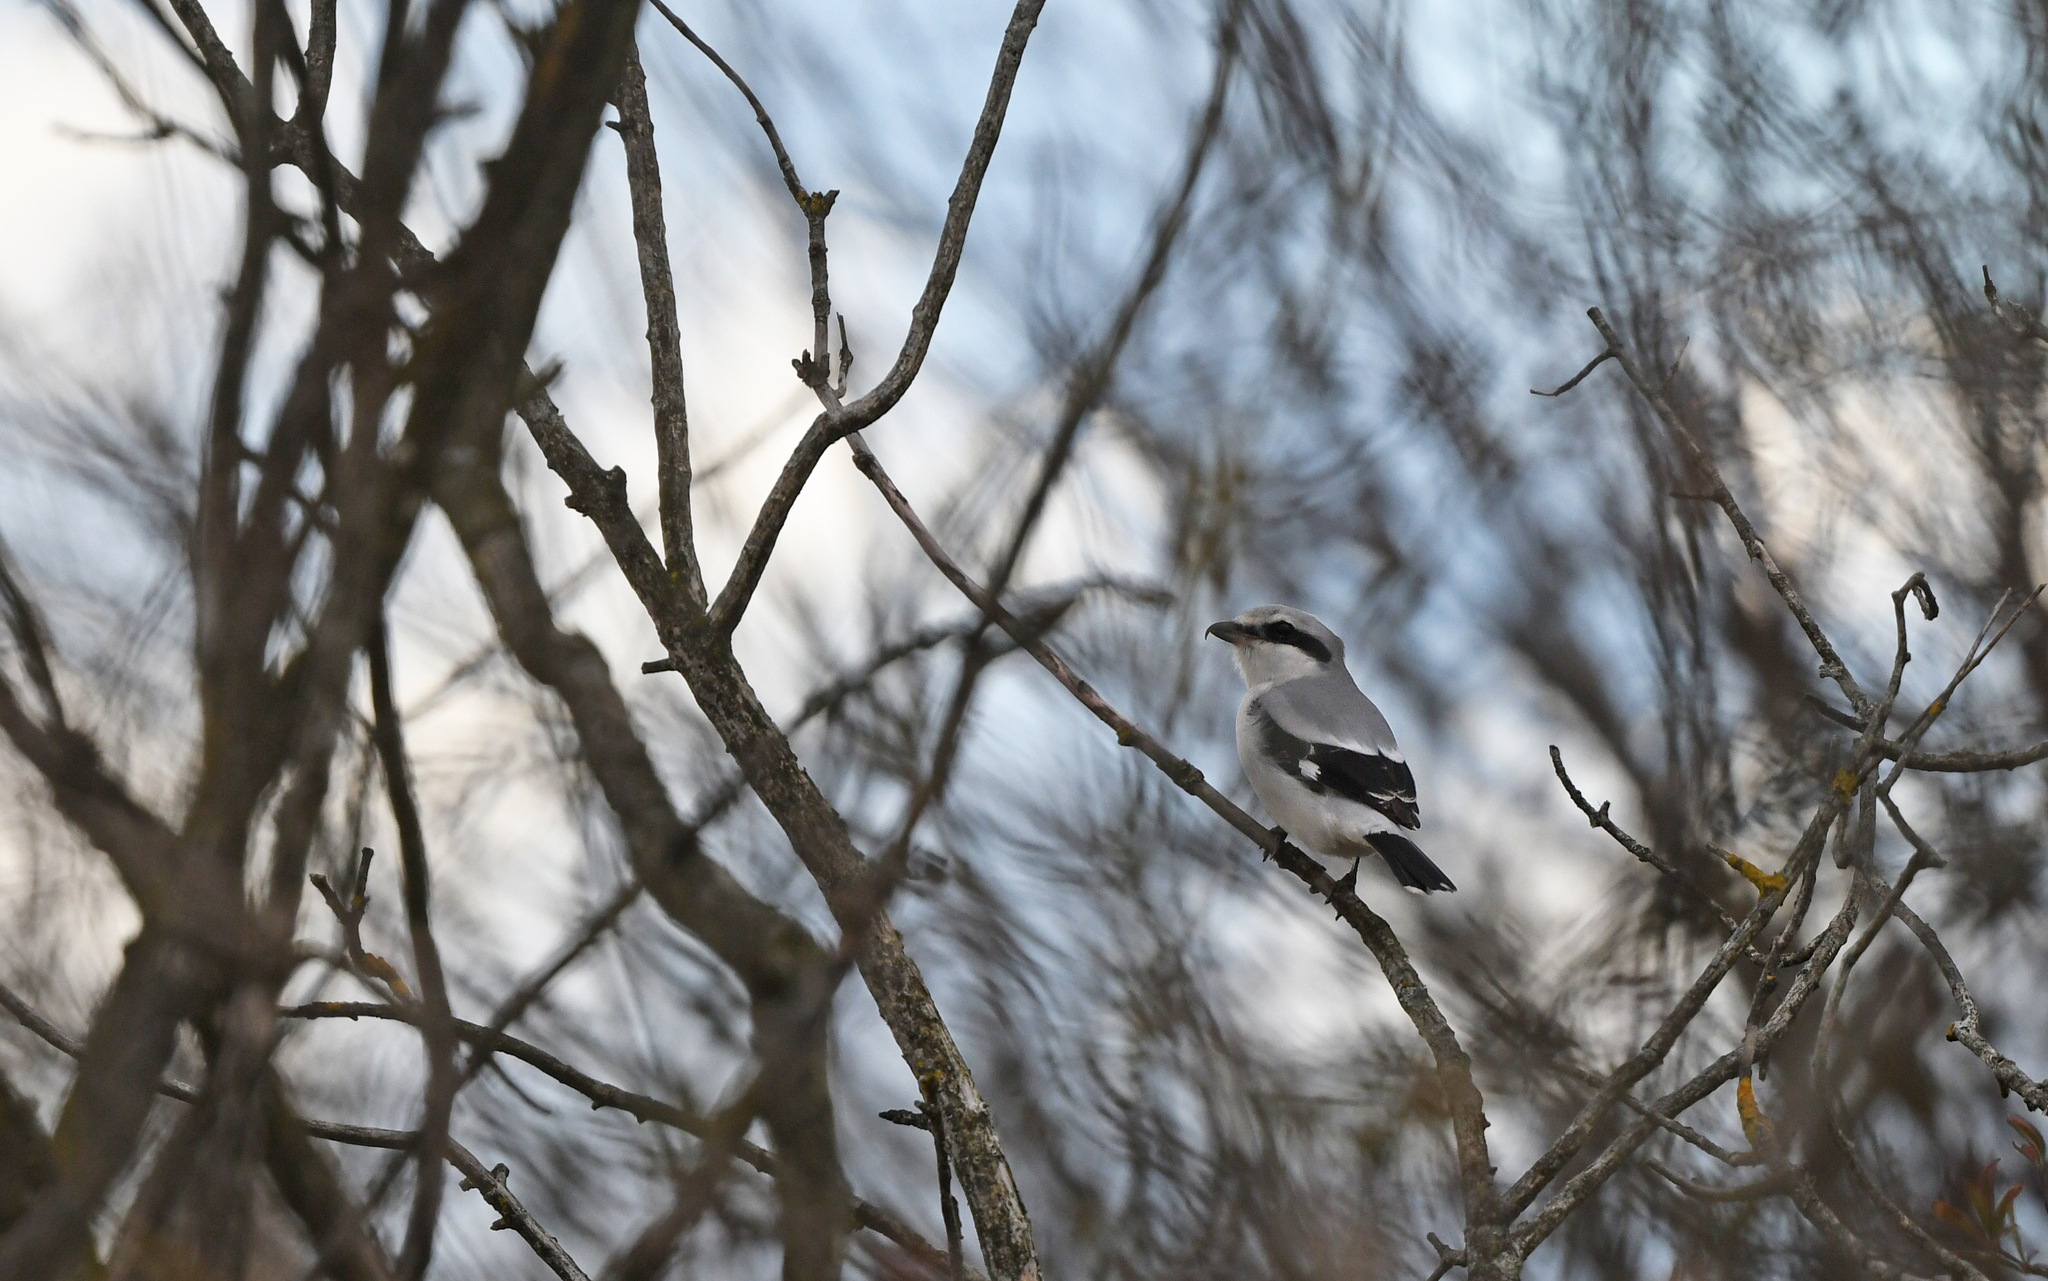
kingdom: Animalia
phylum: Chordata
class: Aves
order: Passeriformes
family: Laniidae
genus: Lanius
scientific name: Lanius excubitor
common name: Great grey shrike
